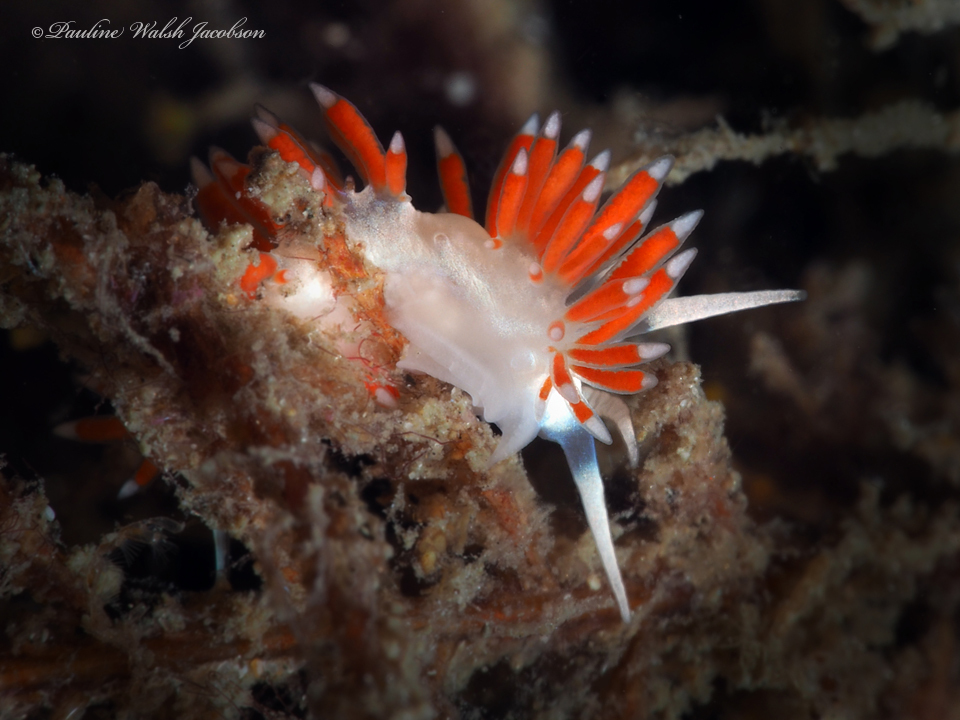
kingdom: Animalia
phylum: Mollusca
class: Gastropoda
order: Nudibranchia
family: Flabellinidae
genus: Flabellina
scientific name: Flabellina dushia
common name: Dushia flabellina
